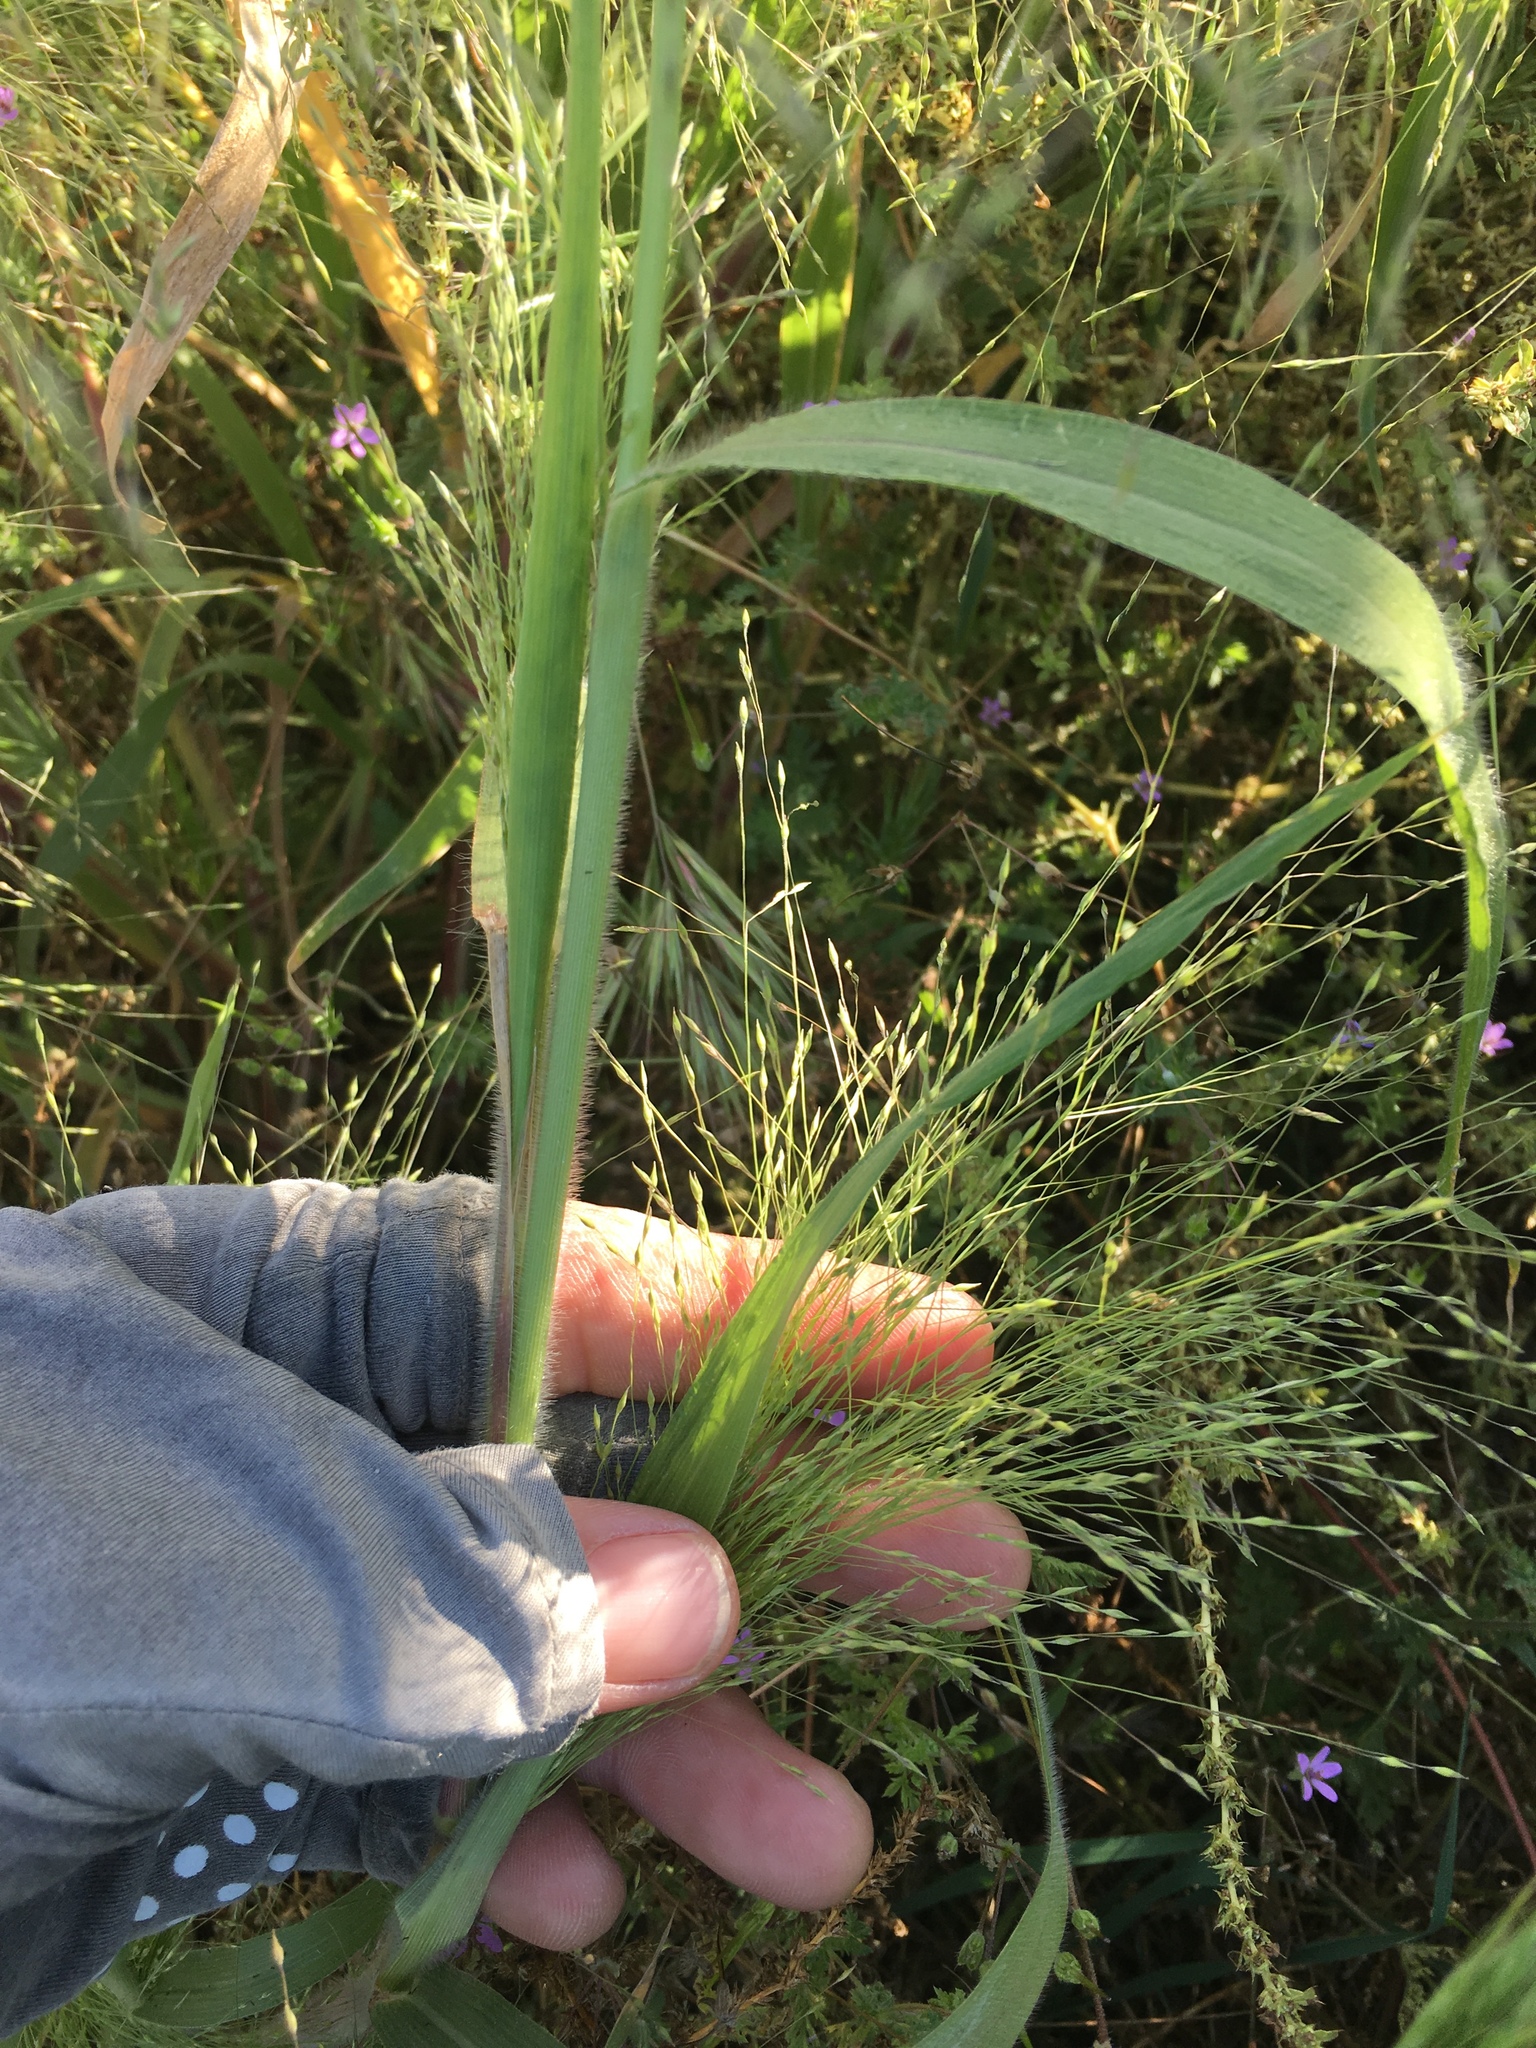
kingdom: Plantae
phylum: Tracheophyta
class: Liliopsida
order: Poales
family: Poaceae
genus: Panicum
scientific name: Panicum capillare
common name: Witch-grass
